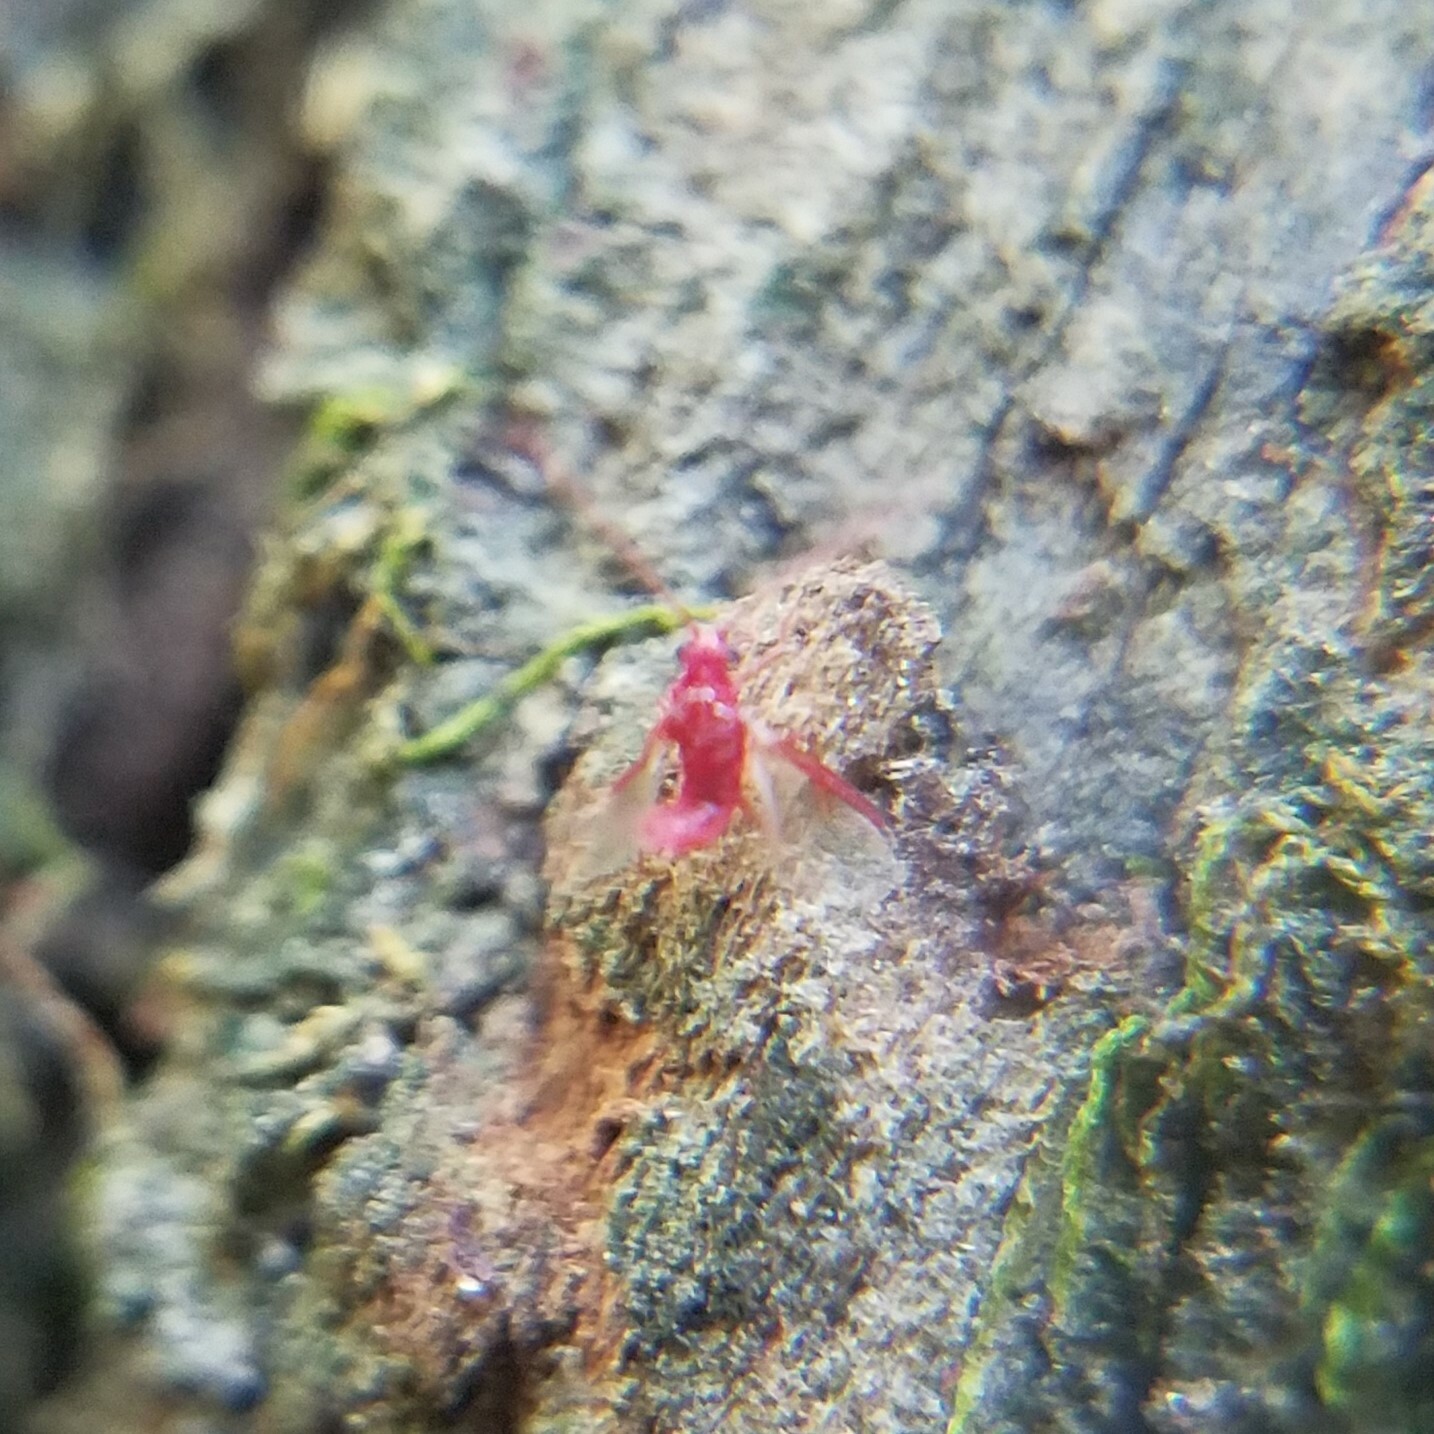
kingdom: Animalia
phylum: Arthropoda
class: Insecta
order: Hemiptera
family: Margarodidae
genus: Neosteingelia
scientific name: Neosteingelia texana
